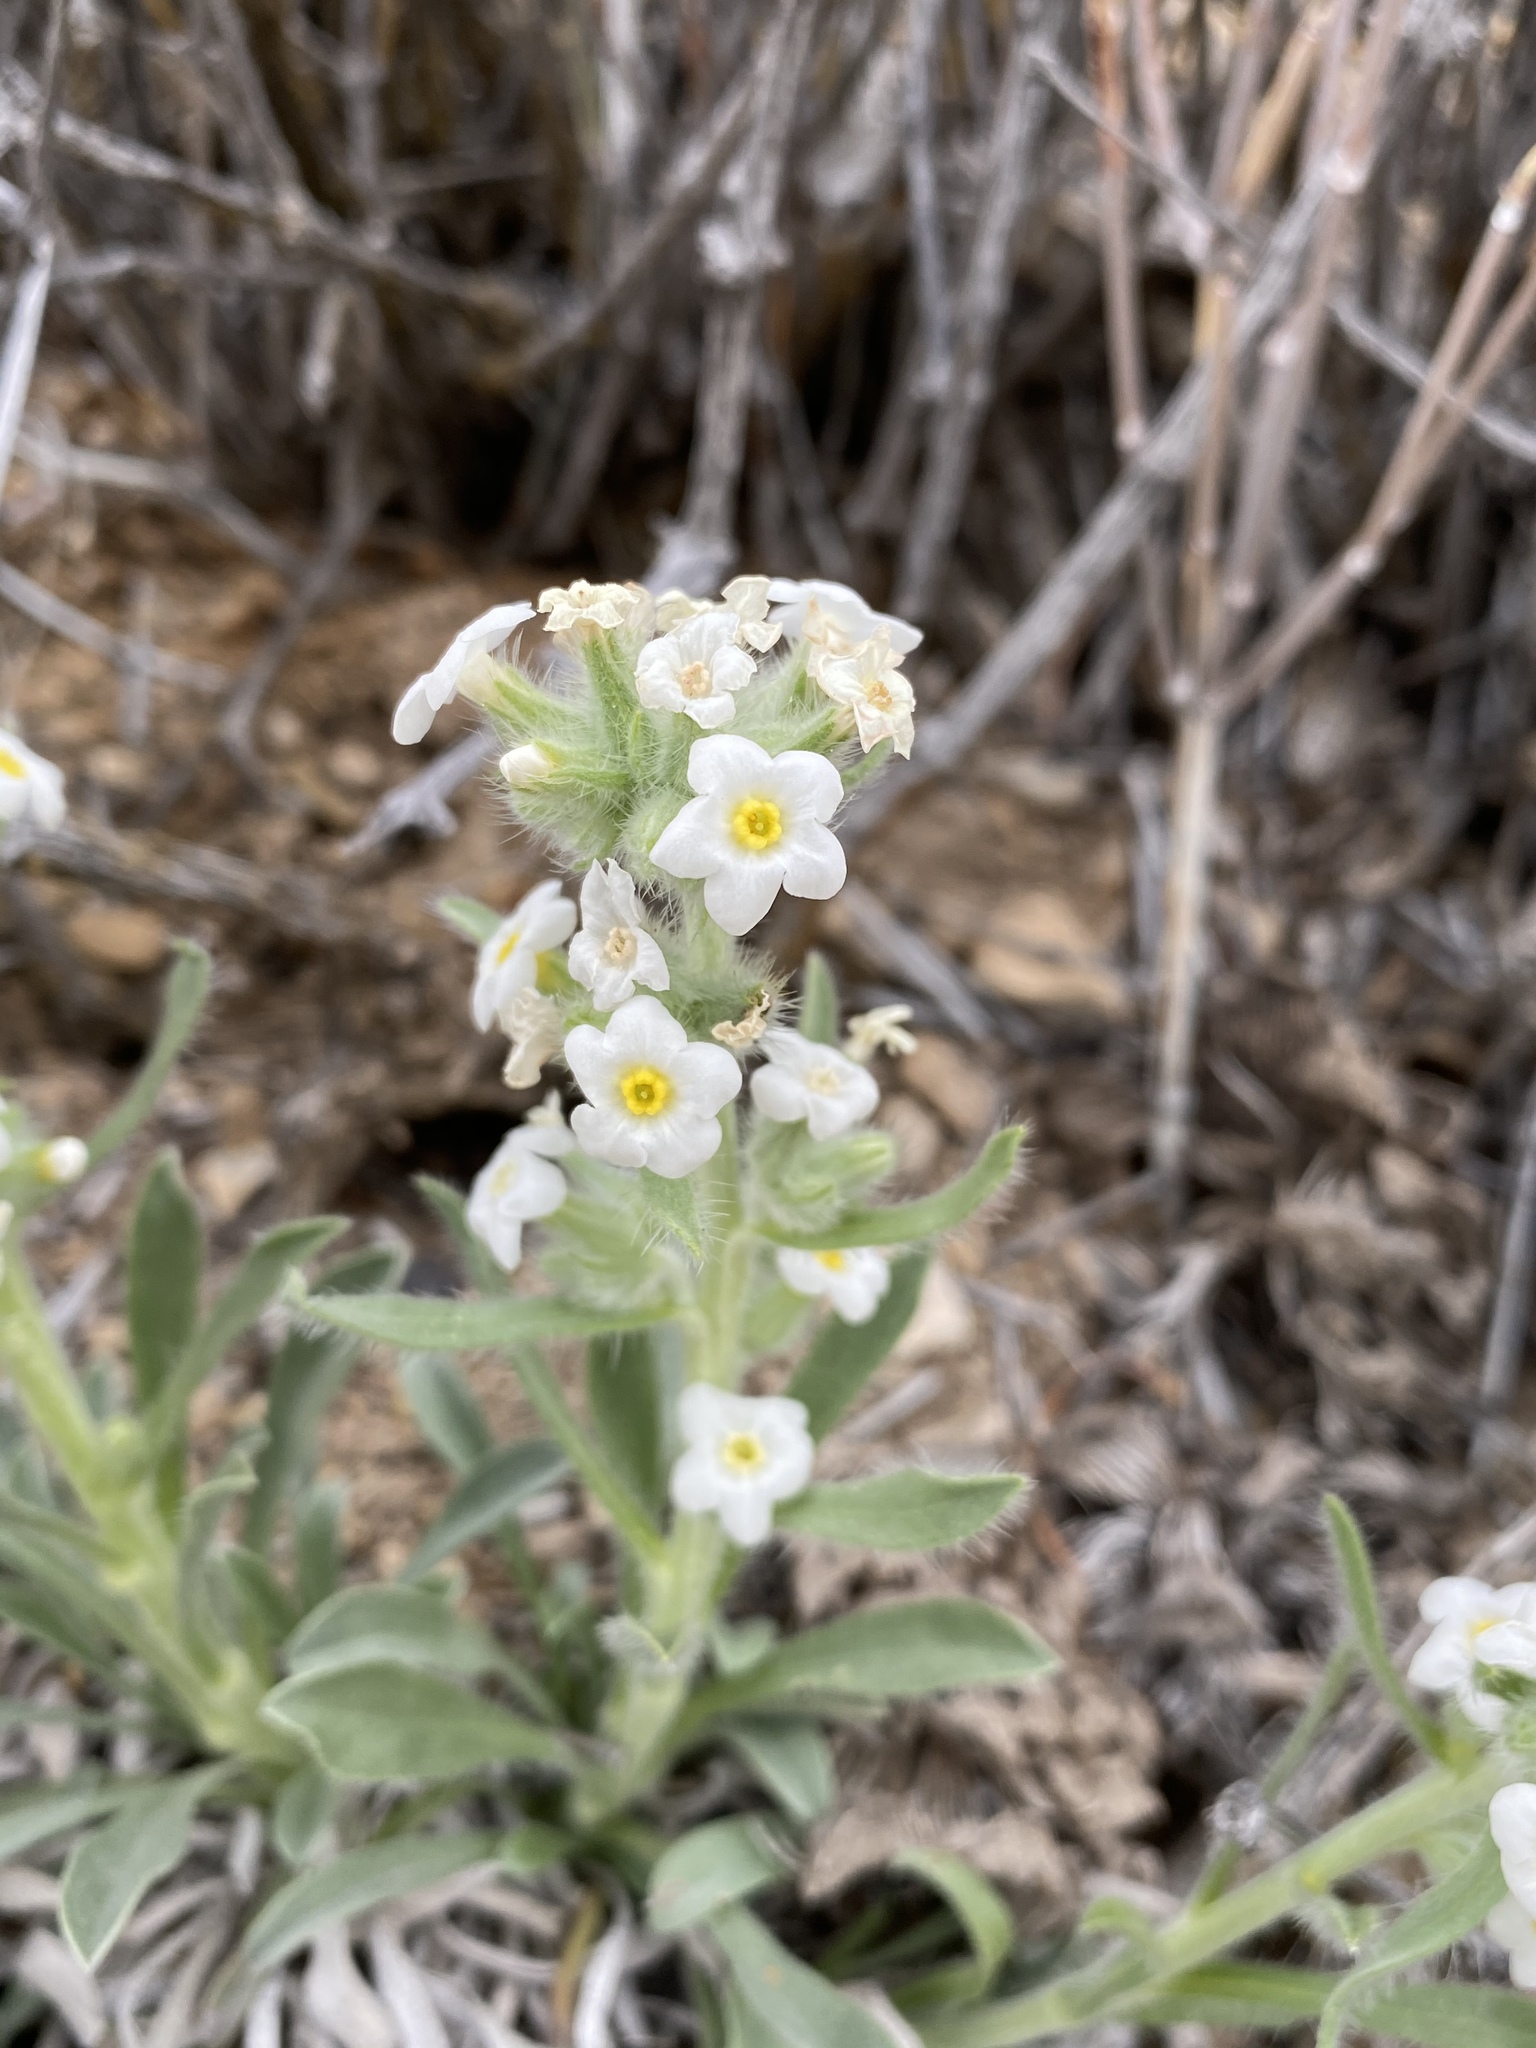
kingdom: Plantae
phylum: Tracheophyta
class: Magnoliopsida
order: Boraginales
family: Boraginaceae
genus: Oreocarya
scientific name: Oreocarya flavoculata
